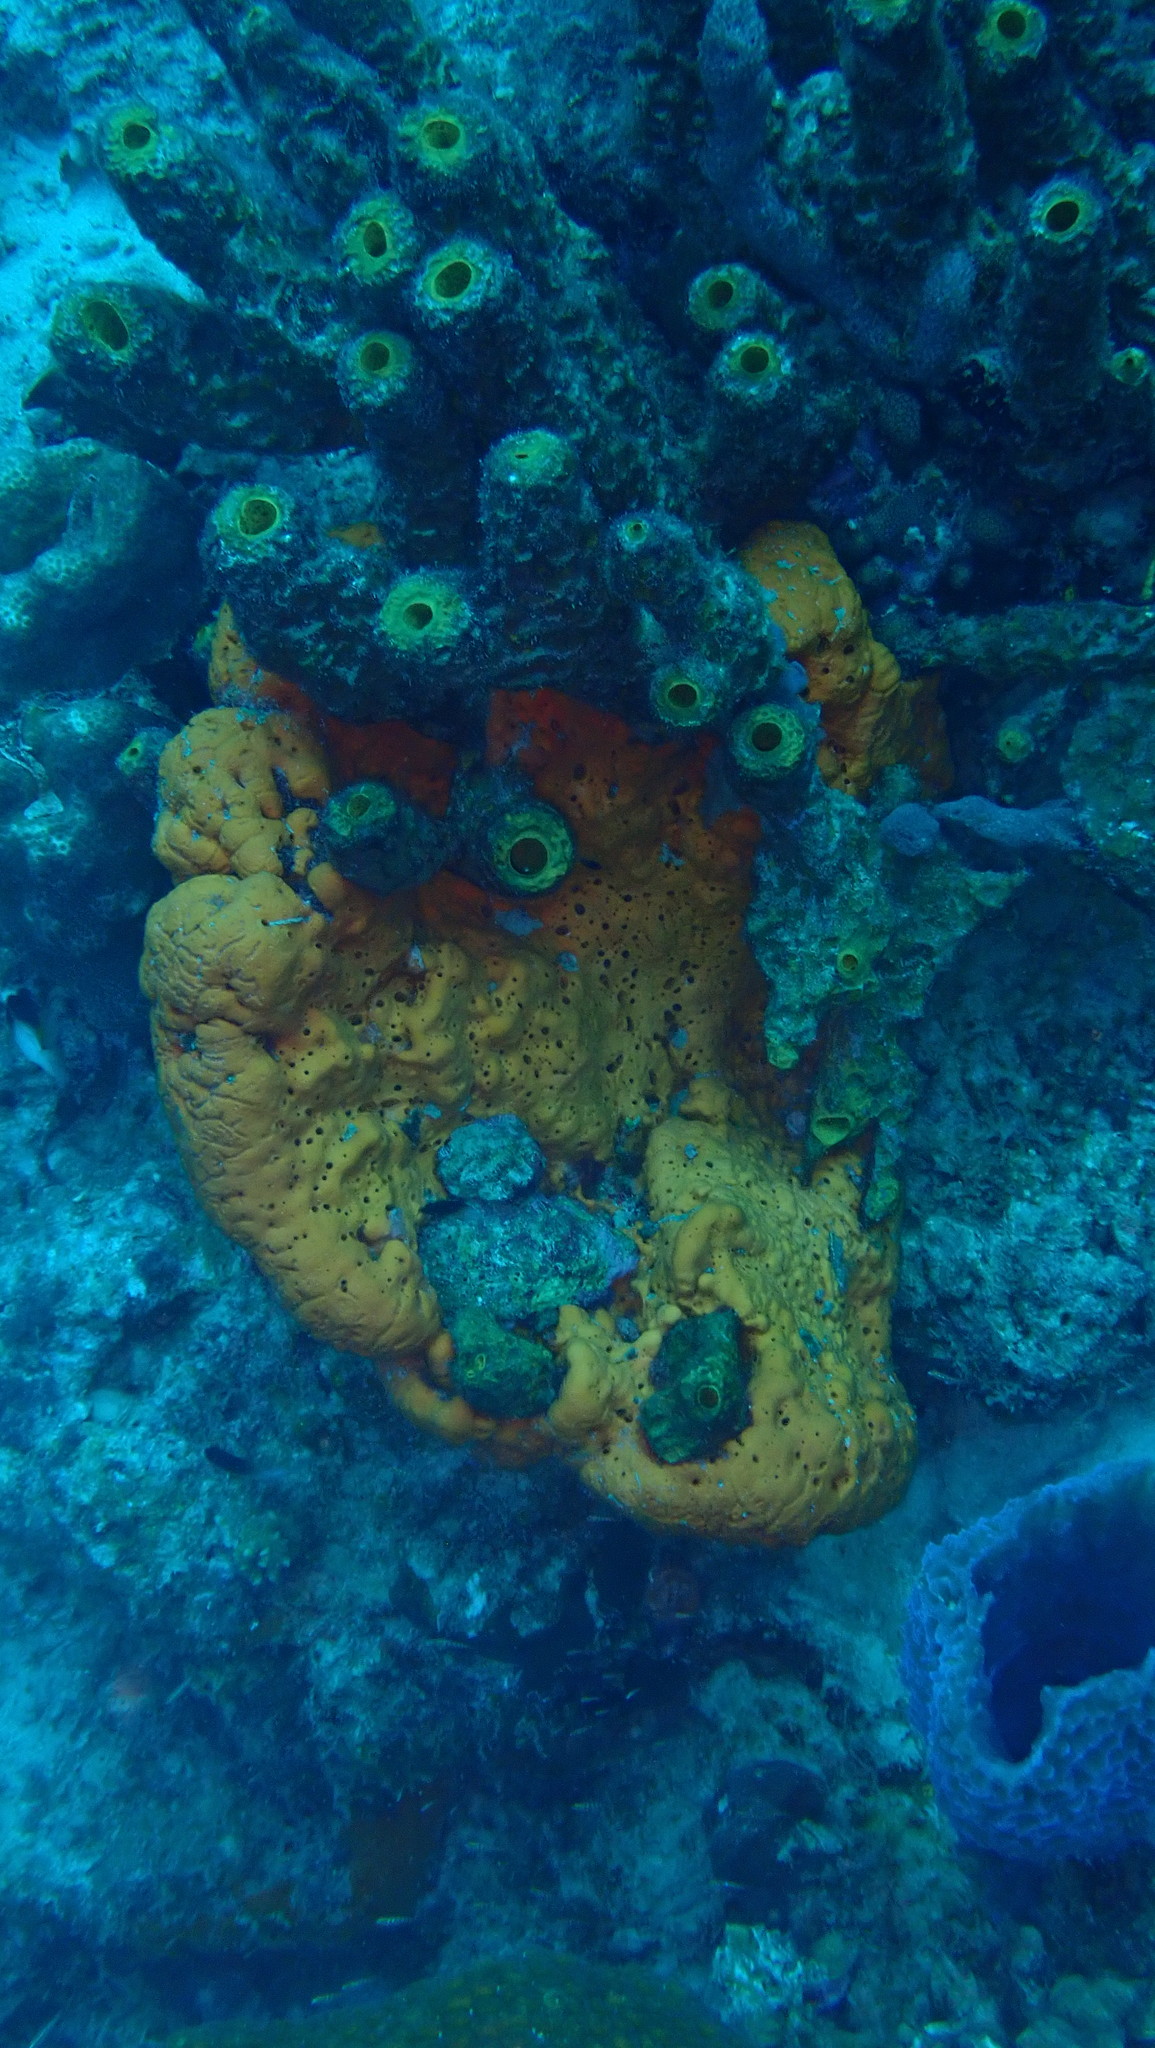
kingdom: Animalia
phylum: Porifera
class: Demospongiae
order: Agelasida
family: Agelasidae
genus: Agelas
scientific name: Agelas clathrodes
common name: Orange elephant ear sponge
